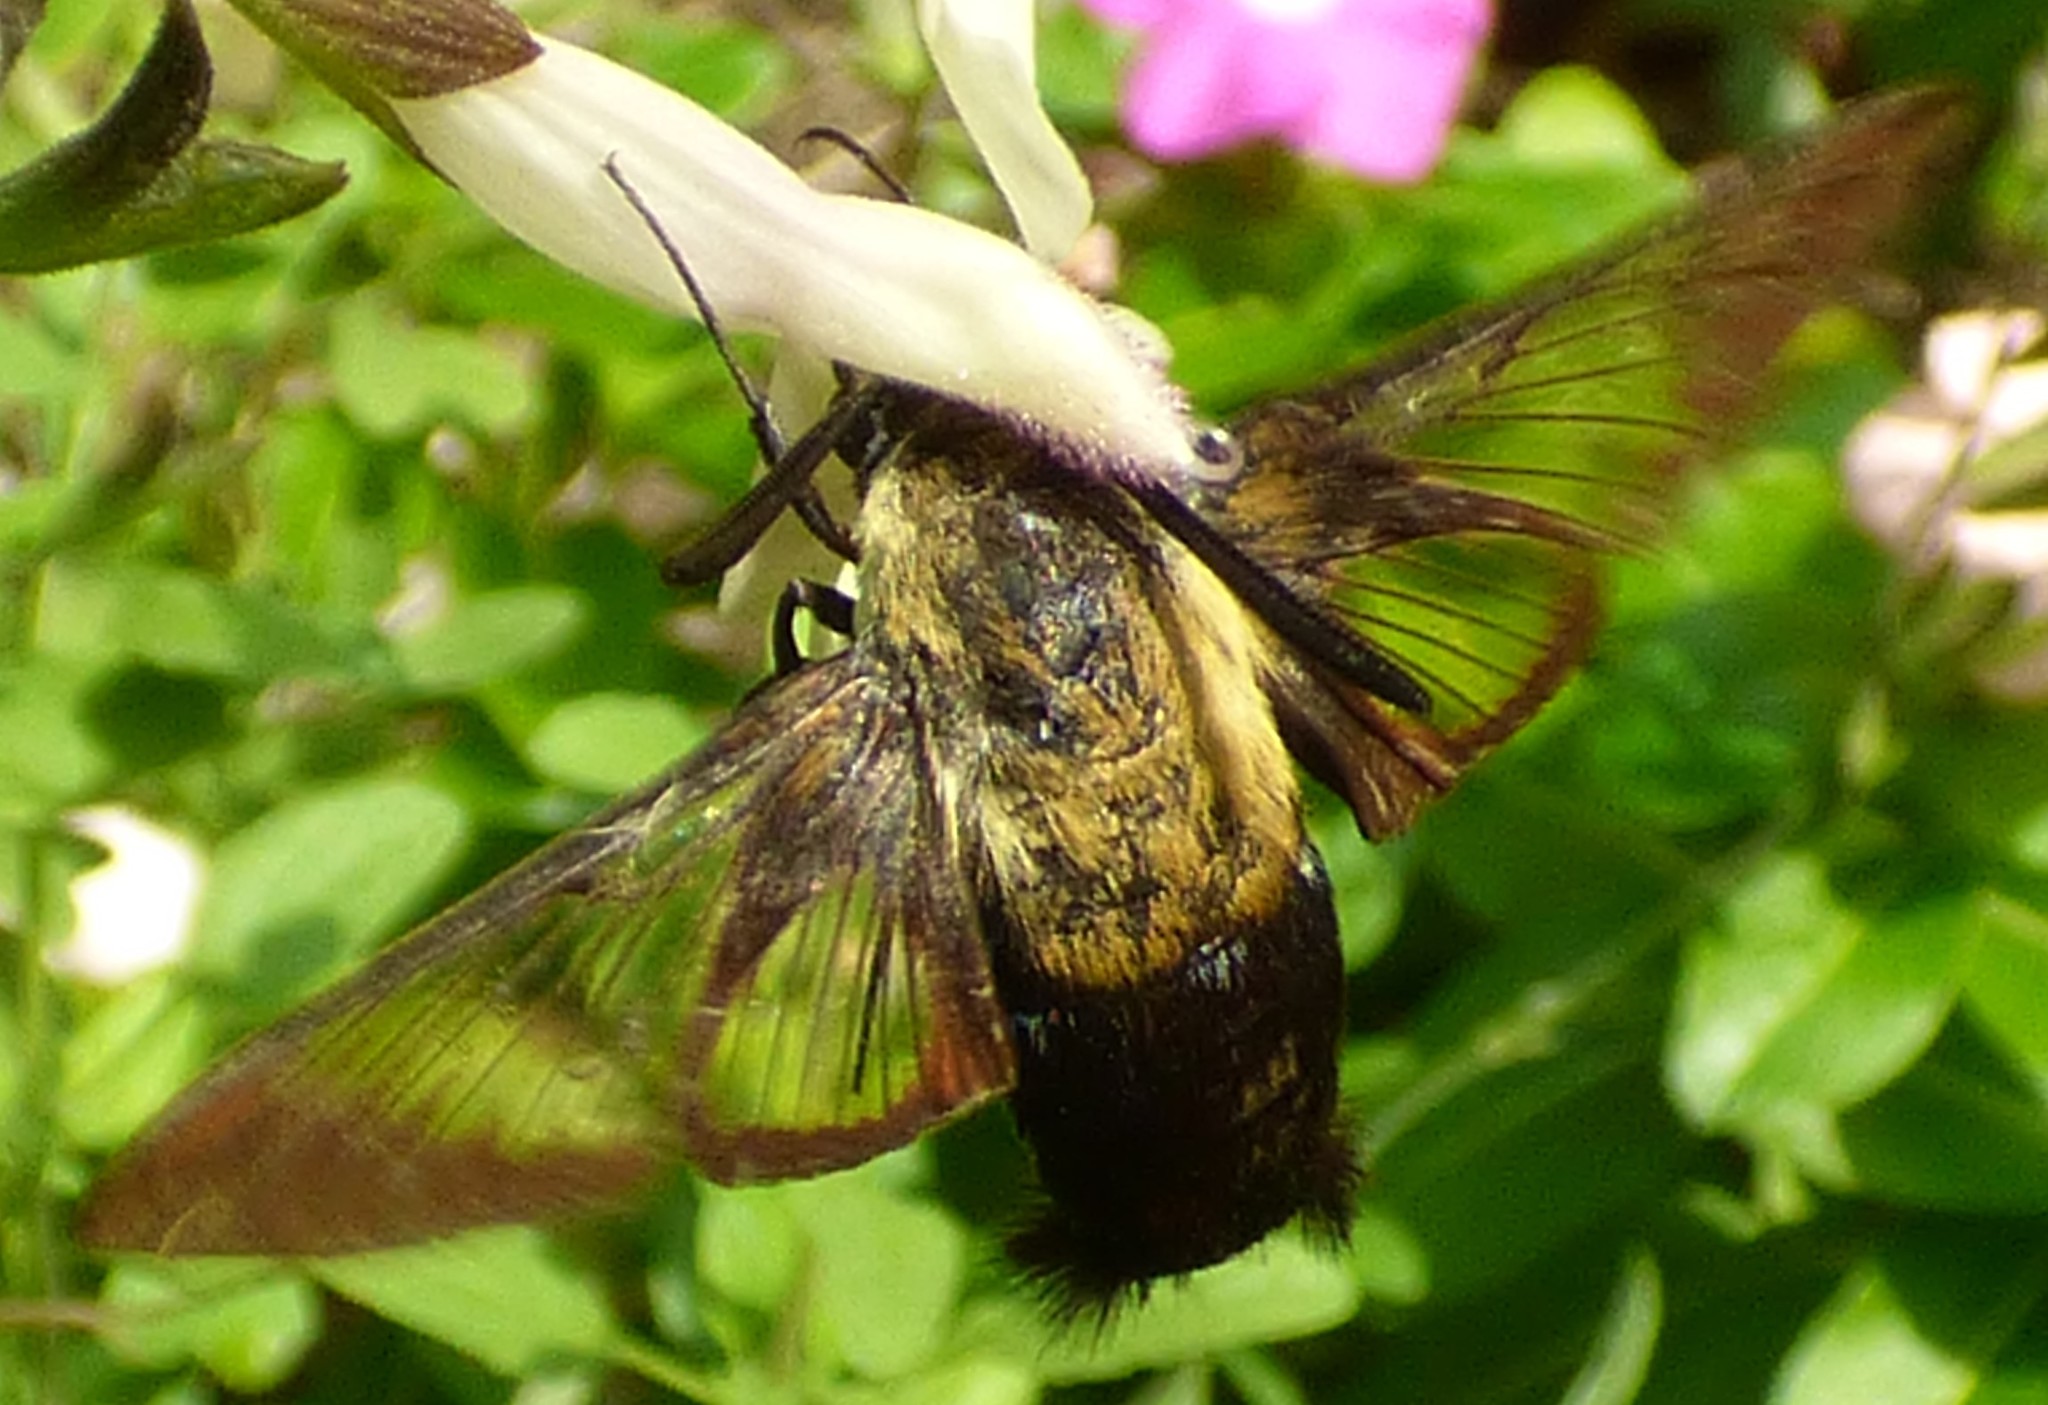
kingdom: Animalia
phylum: Arthropoda
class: Insecta
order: Lepidoptera
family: Sphingidae
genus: Hemaris
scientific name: Hemaris diffinis
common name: Bumblebee moth
